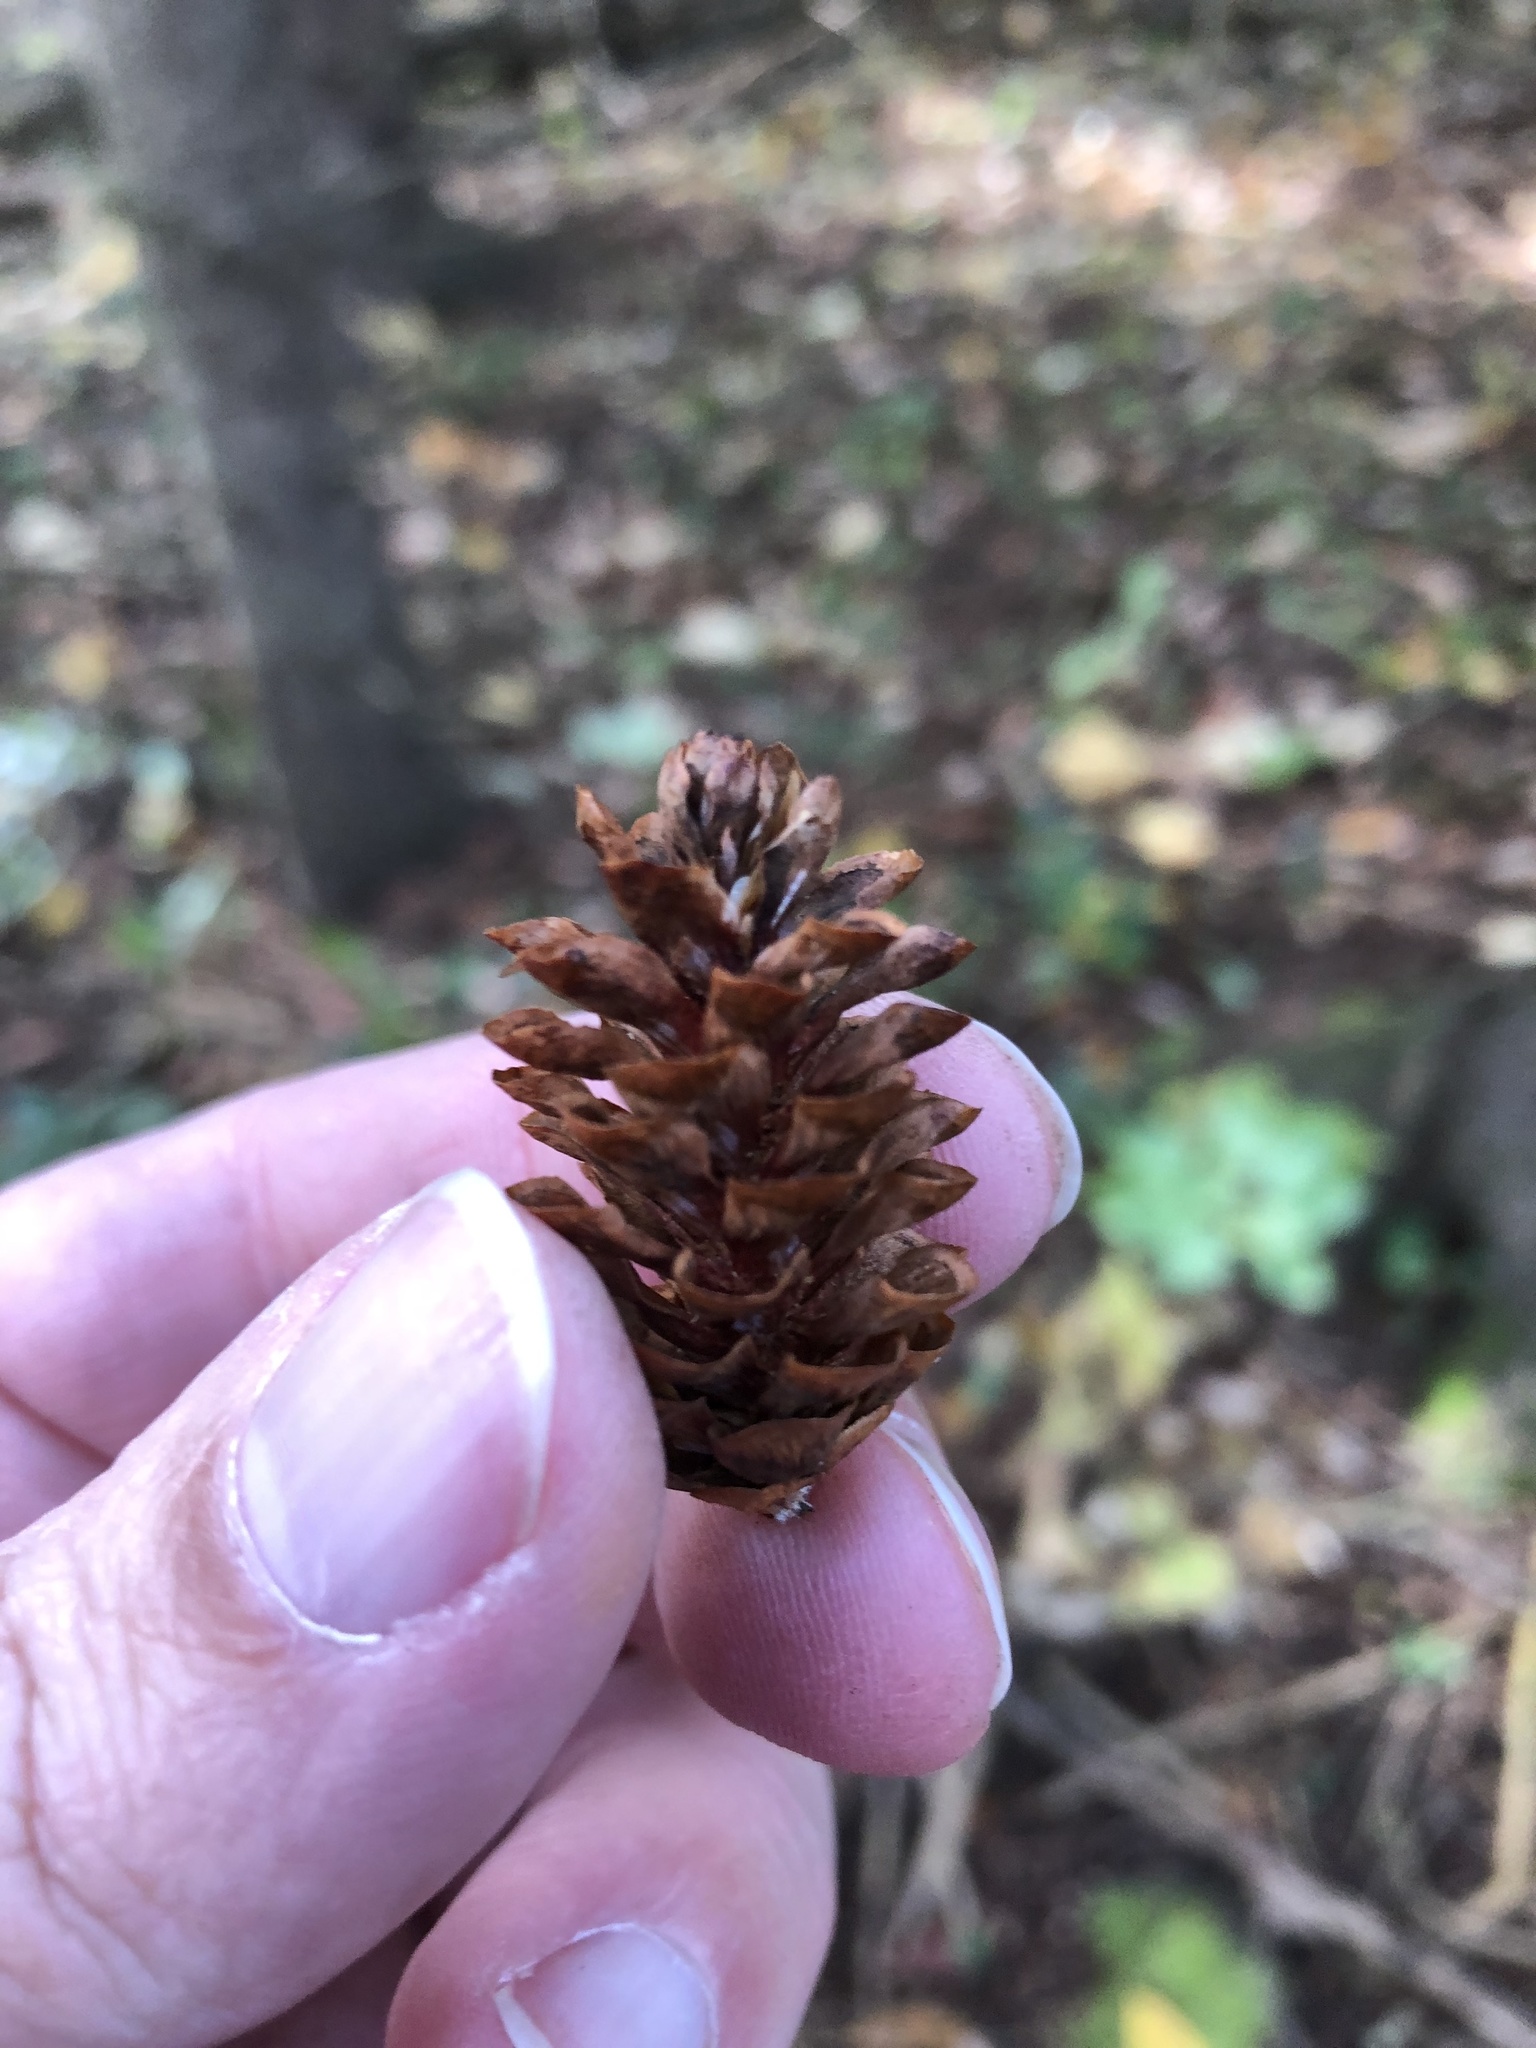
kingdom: Plantae
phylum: Tracheophyta
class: Pinopsida
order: Pinales
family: Pinaceae
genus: Picea
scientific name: Picea glauca
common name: White spruce
